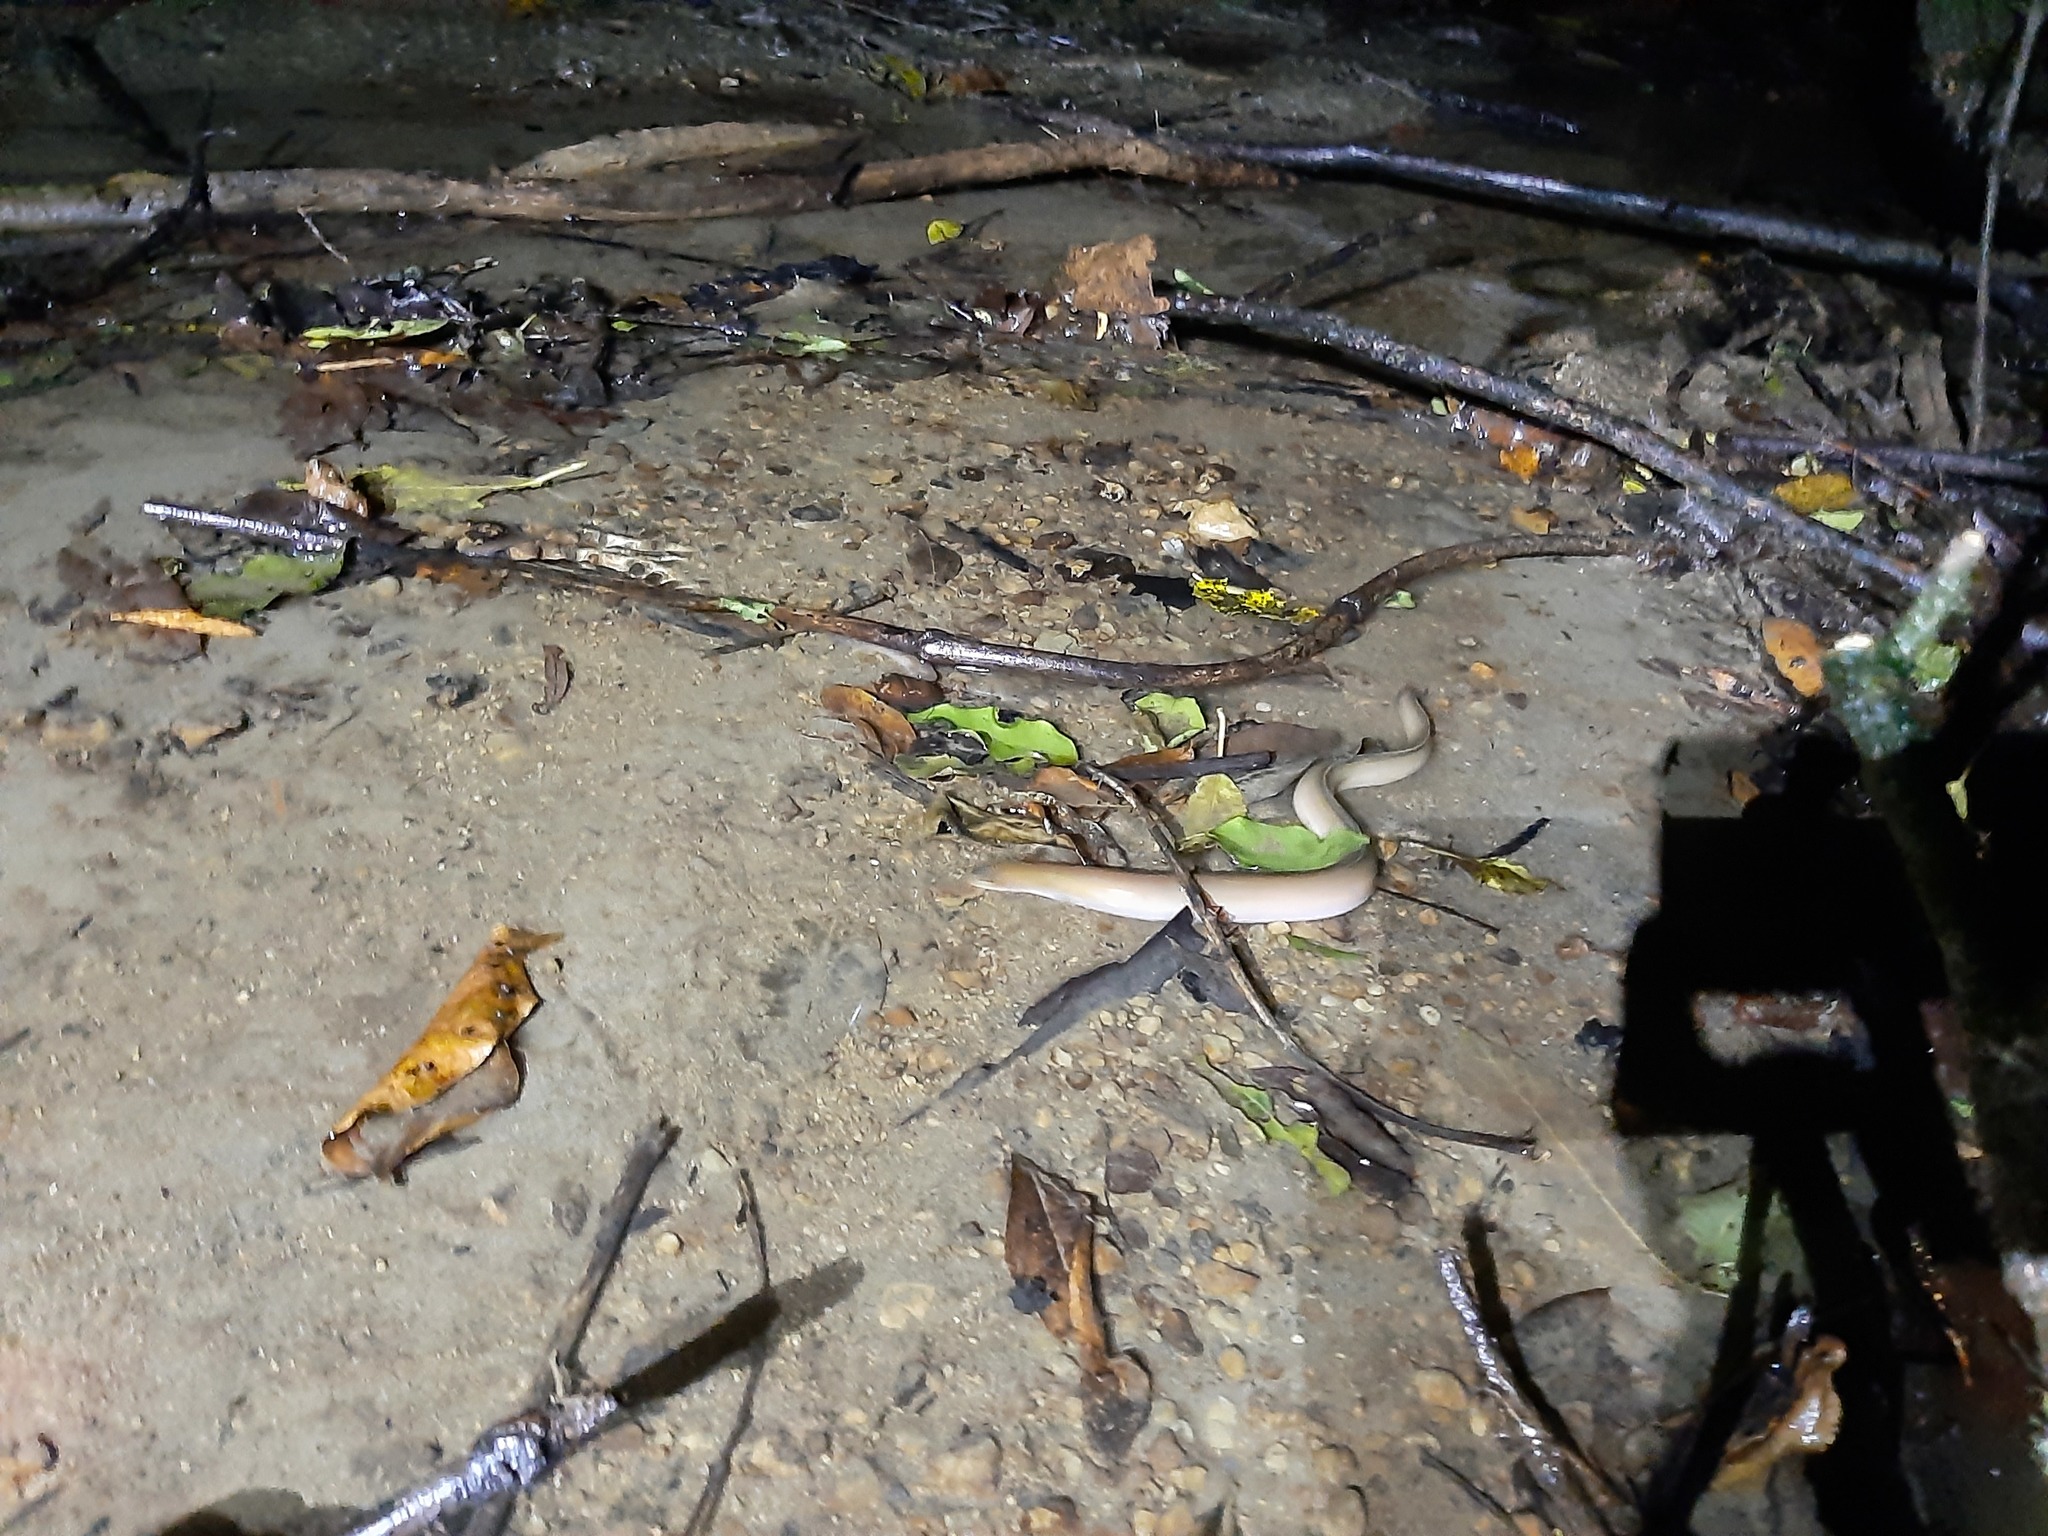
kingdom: Animalia
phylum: Chordata
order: Anguilliformes
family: Anguillidae
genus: Anguilla
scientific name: Anguilla australis
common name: Shortfin eel
